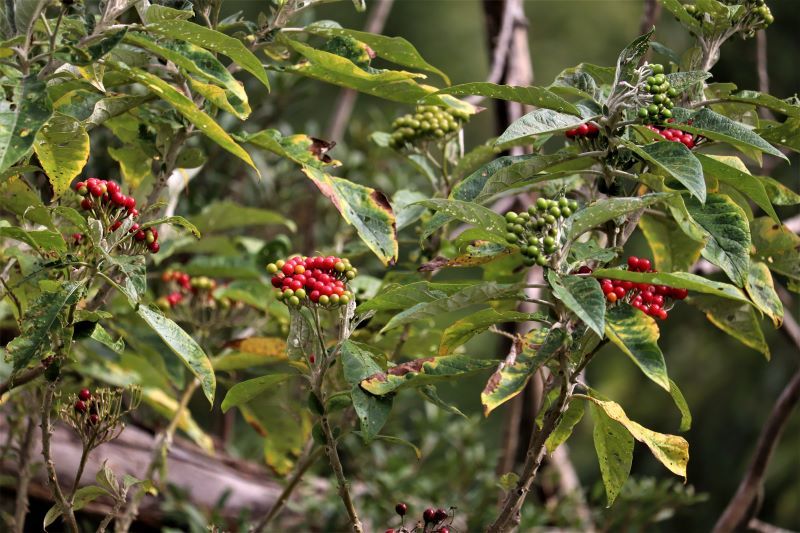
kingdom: Plantae
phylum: Tracheophyta
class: Magnoliopsida
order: Solanales
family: Solanaceae
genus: Solanum
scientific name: Solanum giganteum
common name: Healing-leaf-tree
